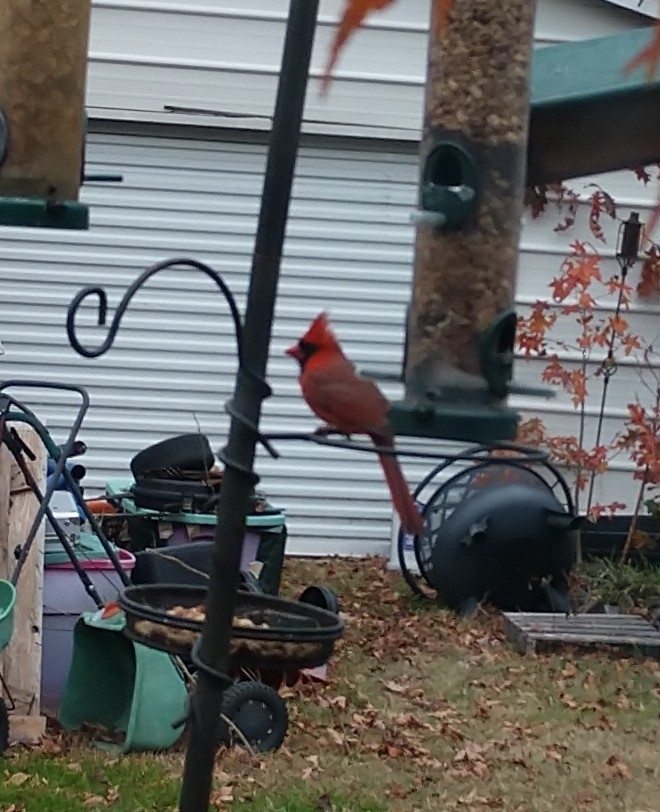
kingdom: Animalia
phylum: Chordata
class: Aves
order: Passeriformes
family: Cardinalidae
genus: Cardinalis
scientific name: Cardinalis cardinalis
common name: Northern cardinal
